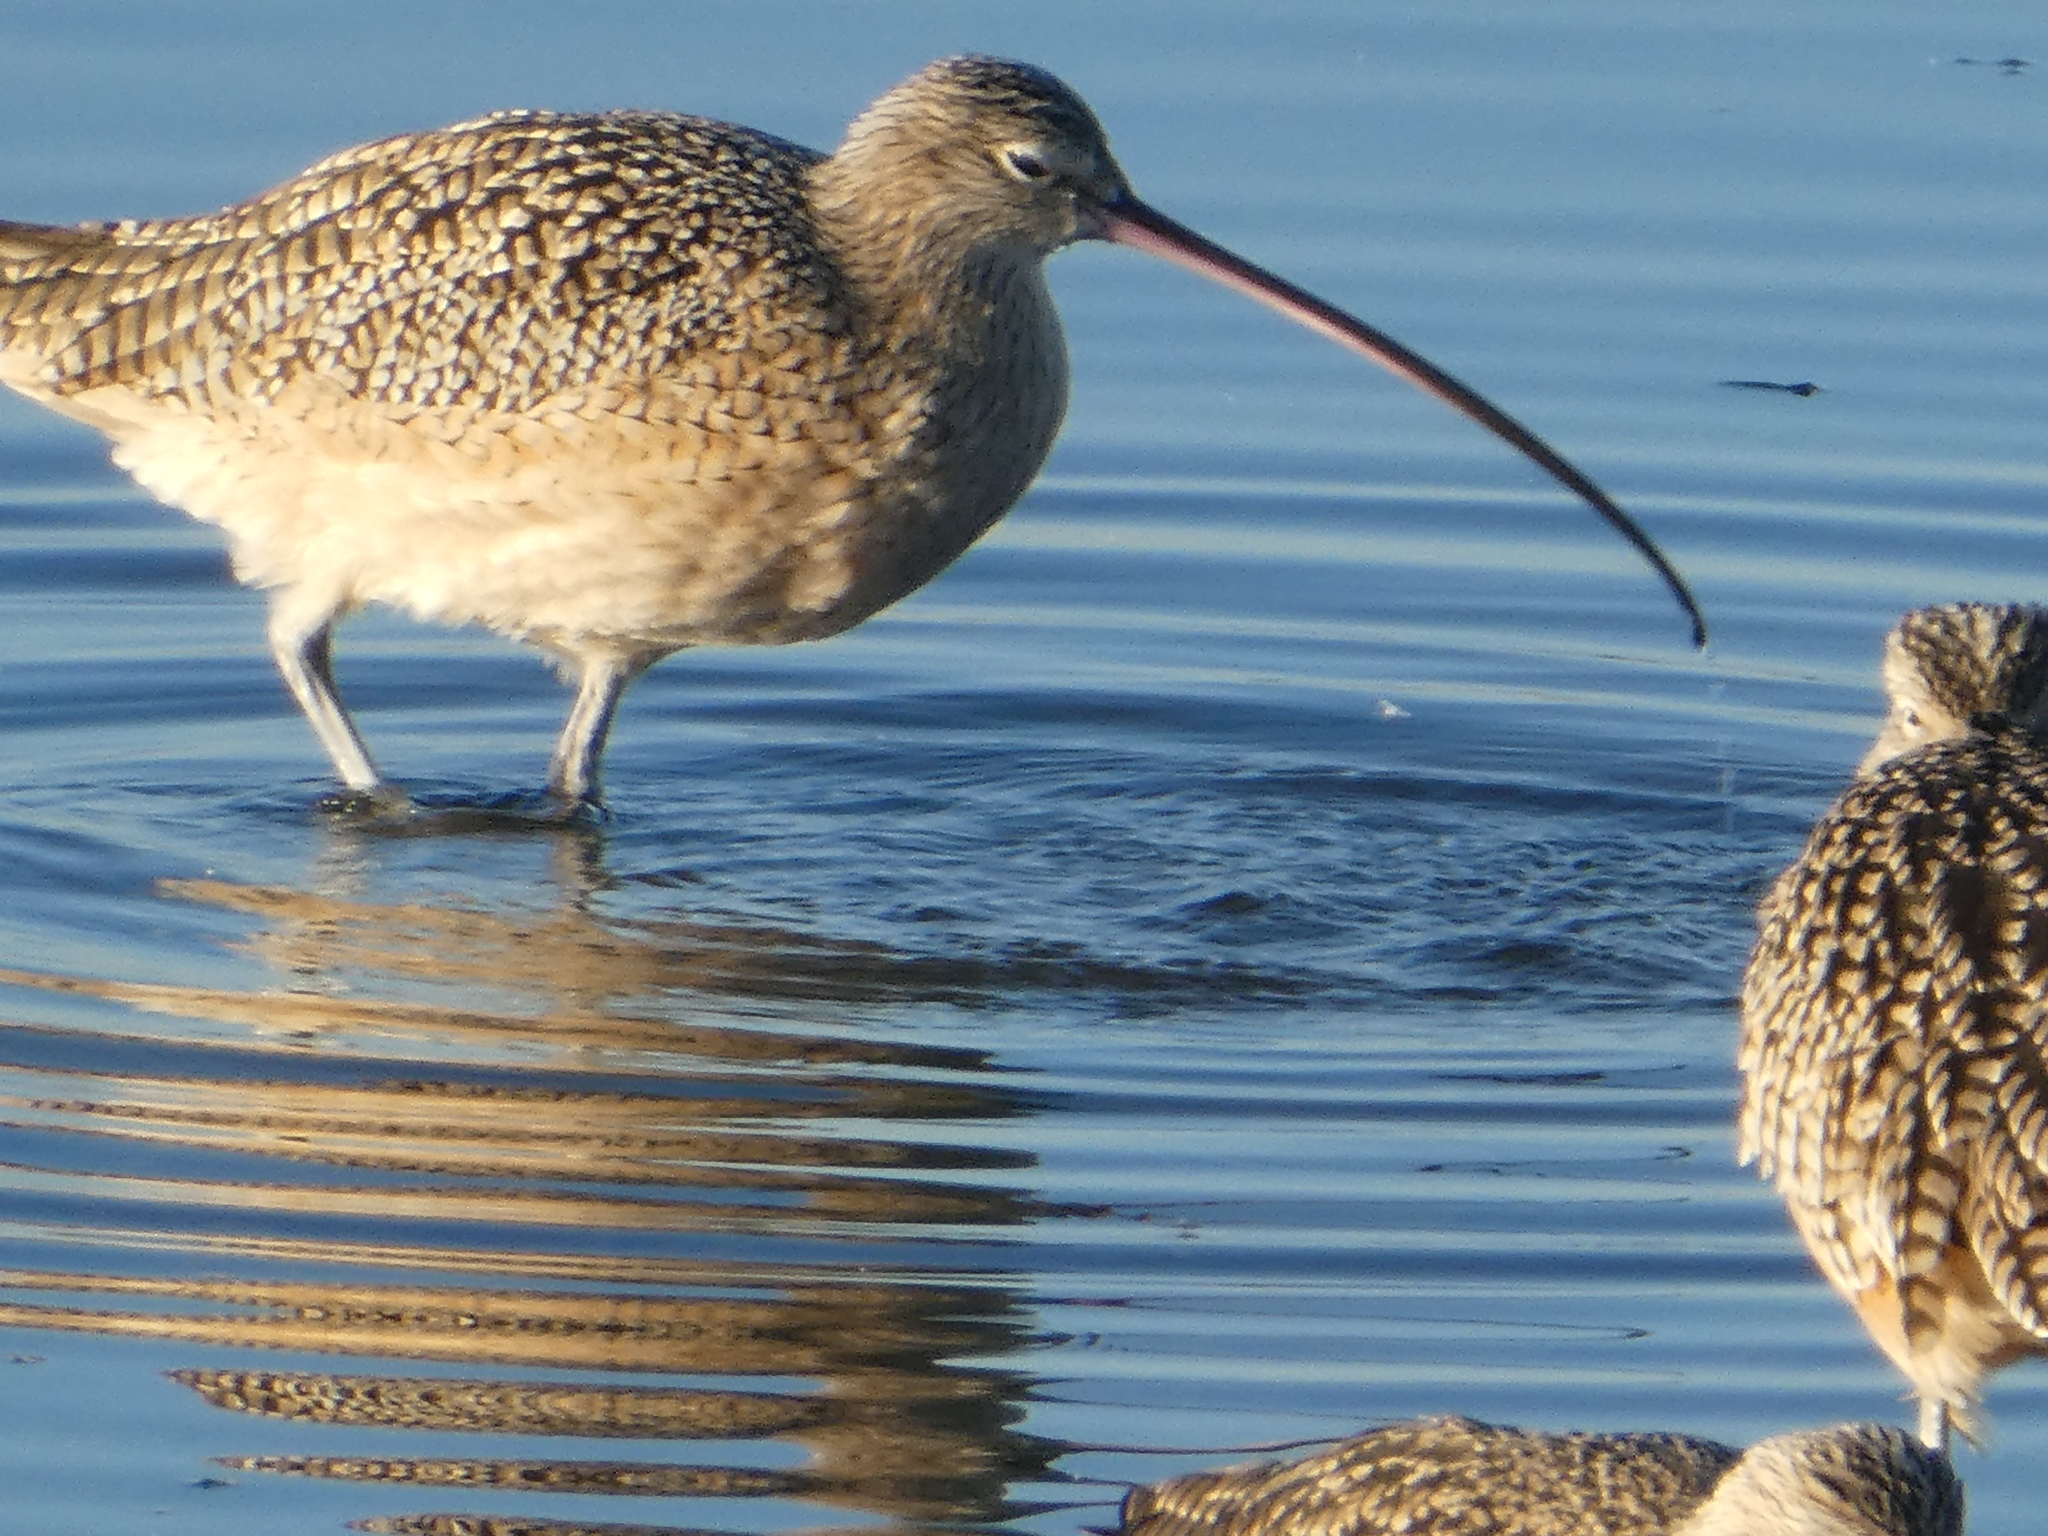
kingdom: Animalia
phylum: Chordata
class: Aves
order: Charadriiformes
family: Scolopacidae
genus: Numenius
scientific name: Numenius americanus
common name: Long-billed curlew
